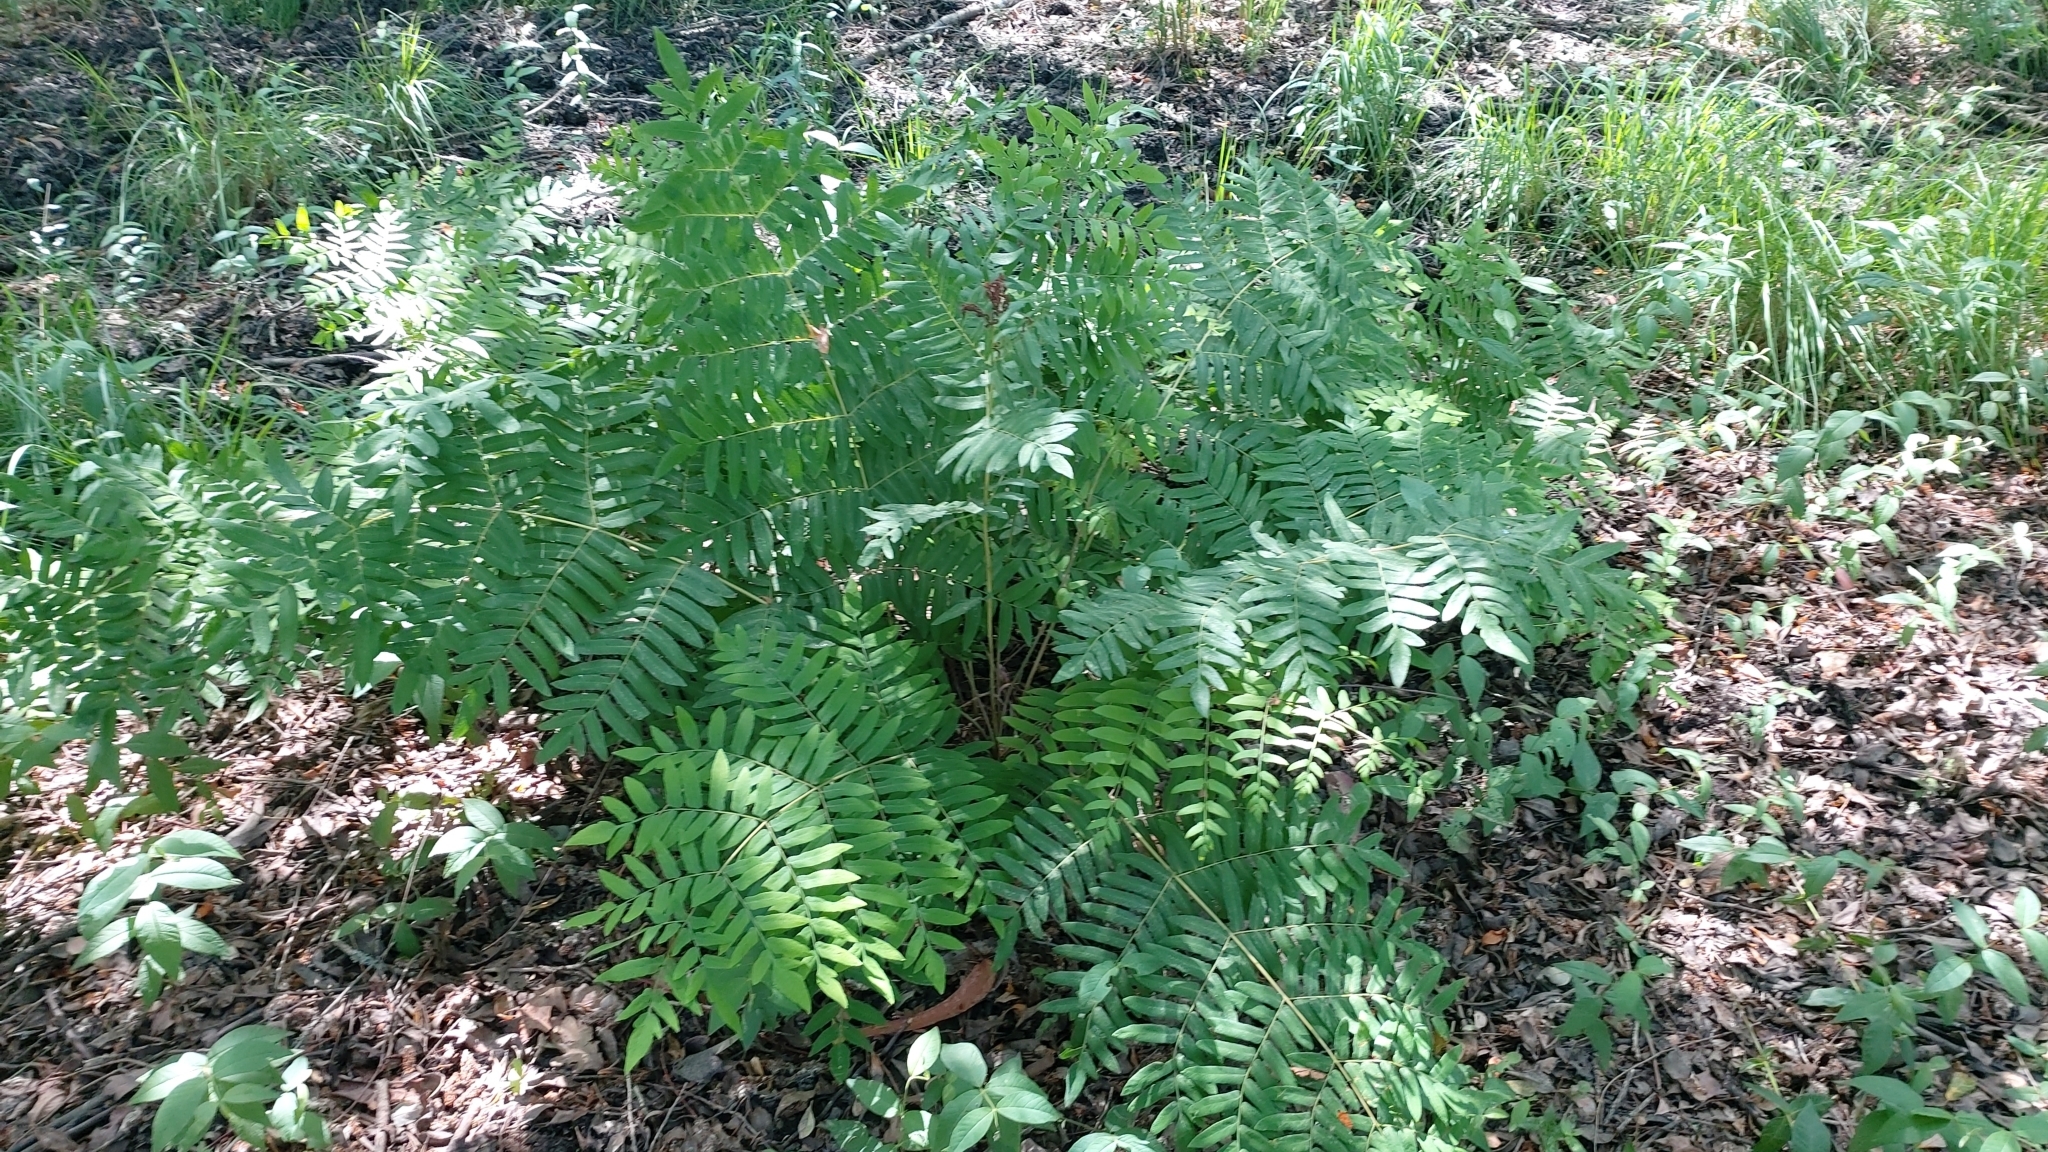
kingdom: Plantae
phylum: Tracheophyta
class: Polypodiopsida
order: Osmundales
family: Osmundaceae
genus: Osmunda
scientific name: Osmunda regalis
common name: Royal fern
